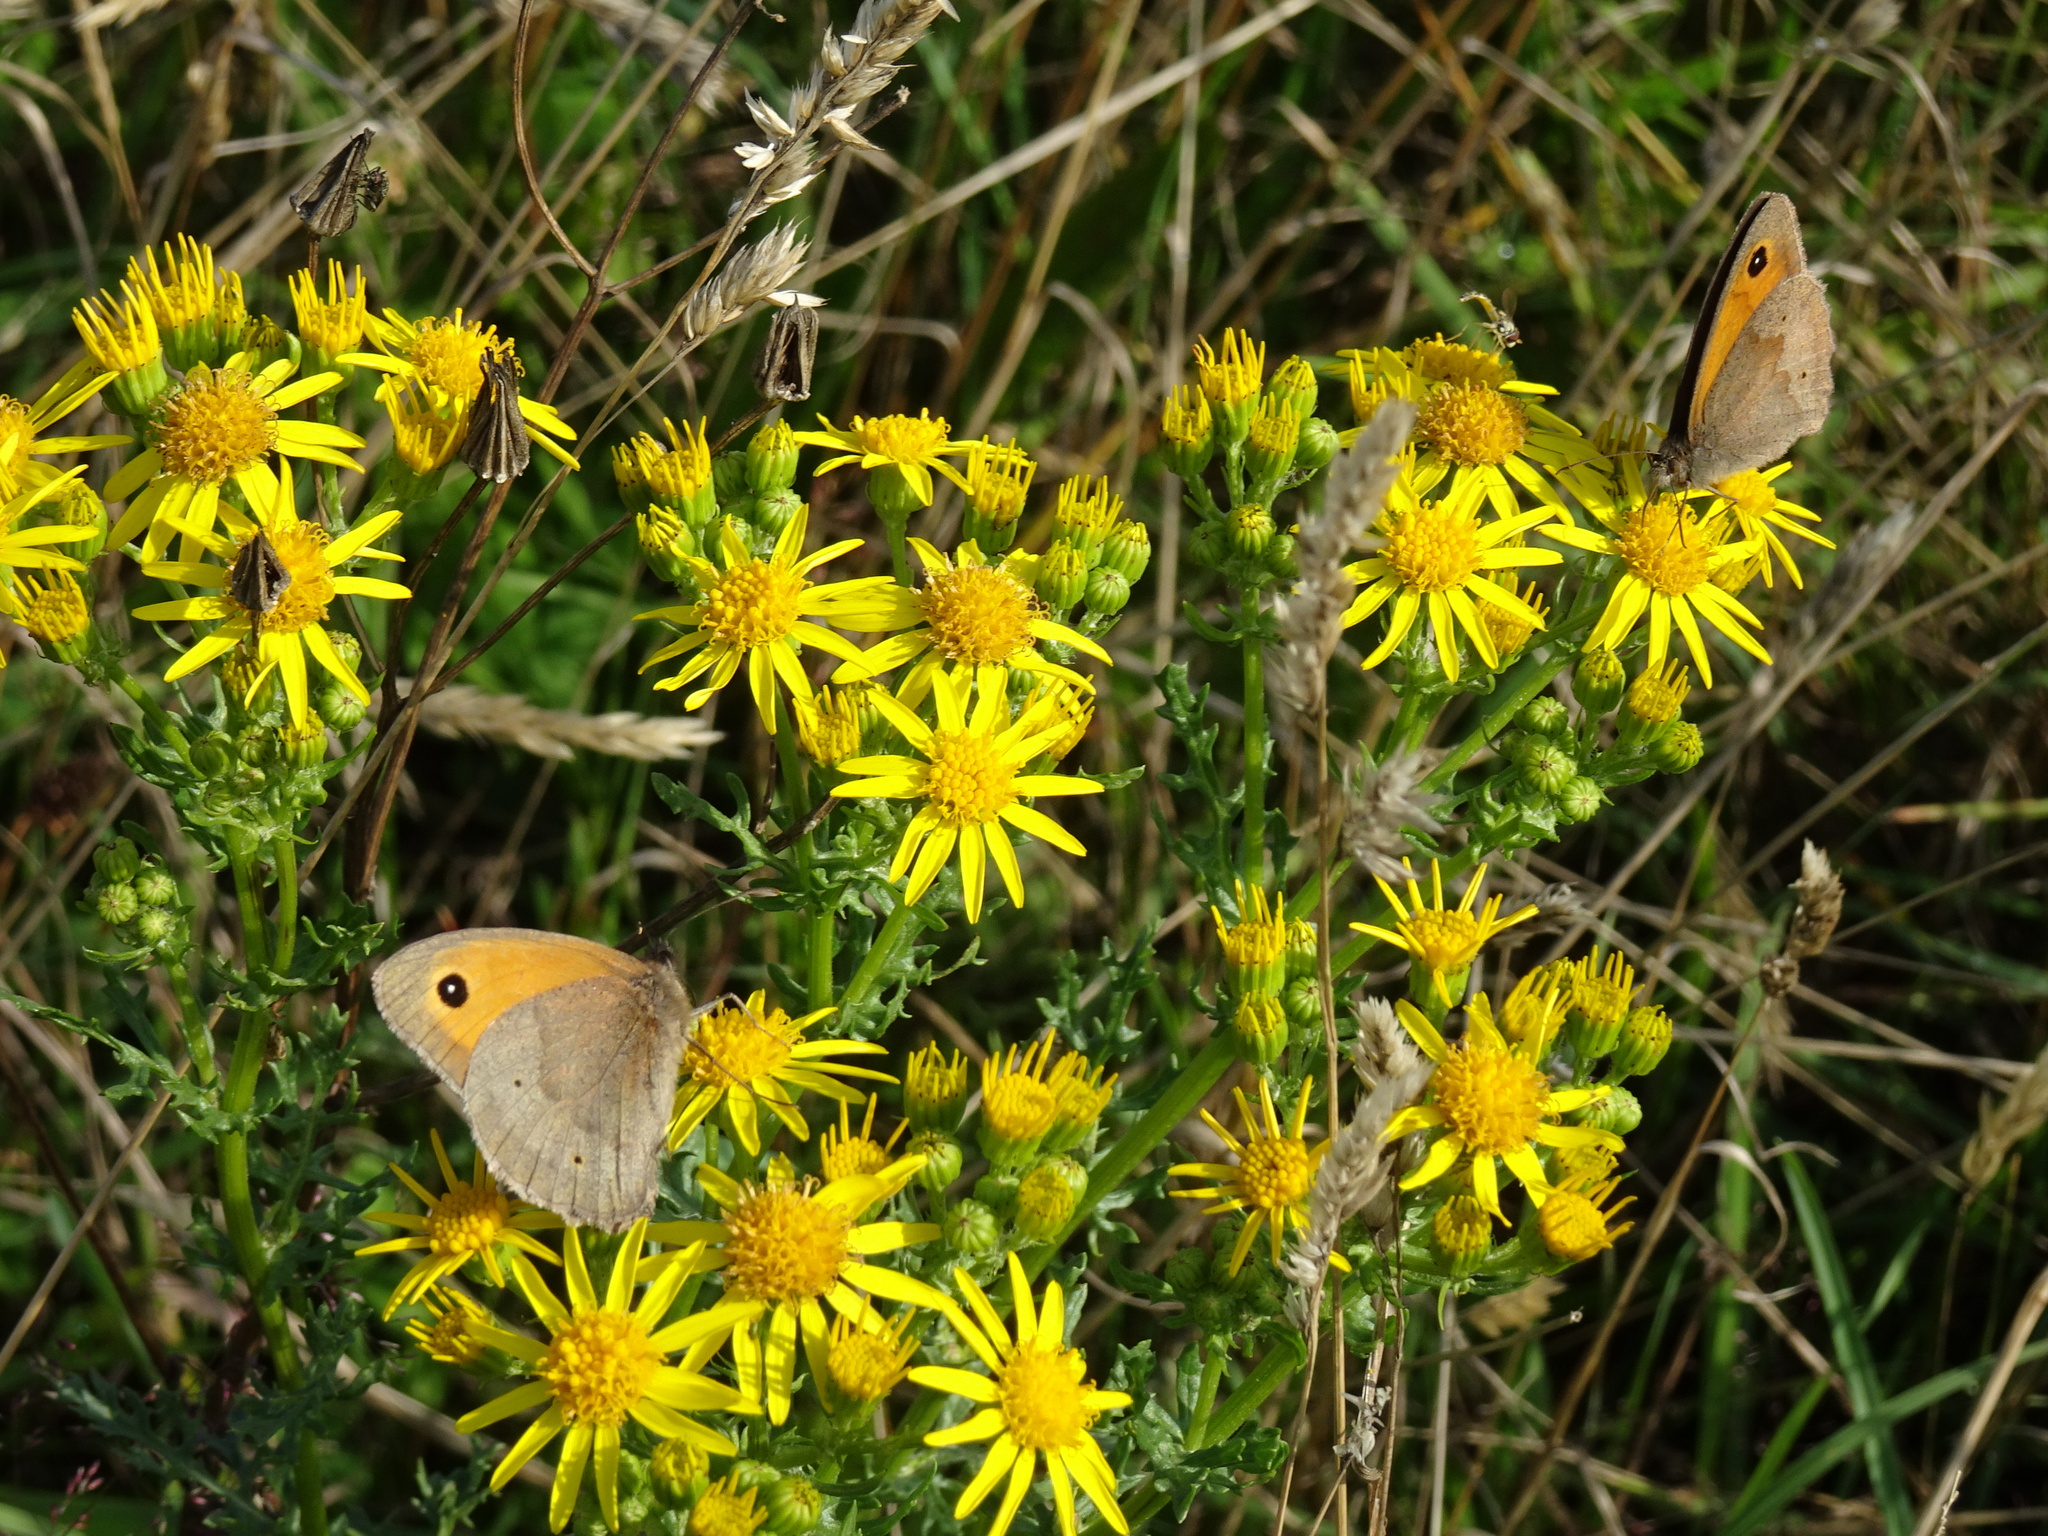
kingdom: Plantae
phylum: Tracheophyta
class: Magnoliopsida
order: Asterales
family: Asteraceae
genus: Jacobaea
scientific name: Jacobaea vulgaris
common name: Stinking willie
